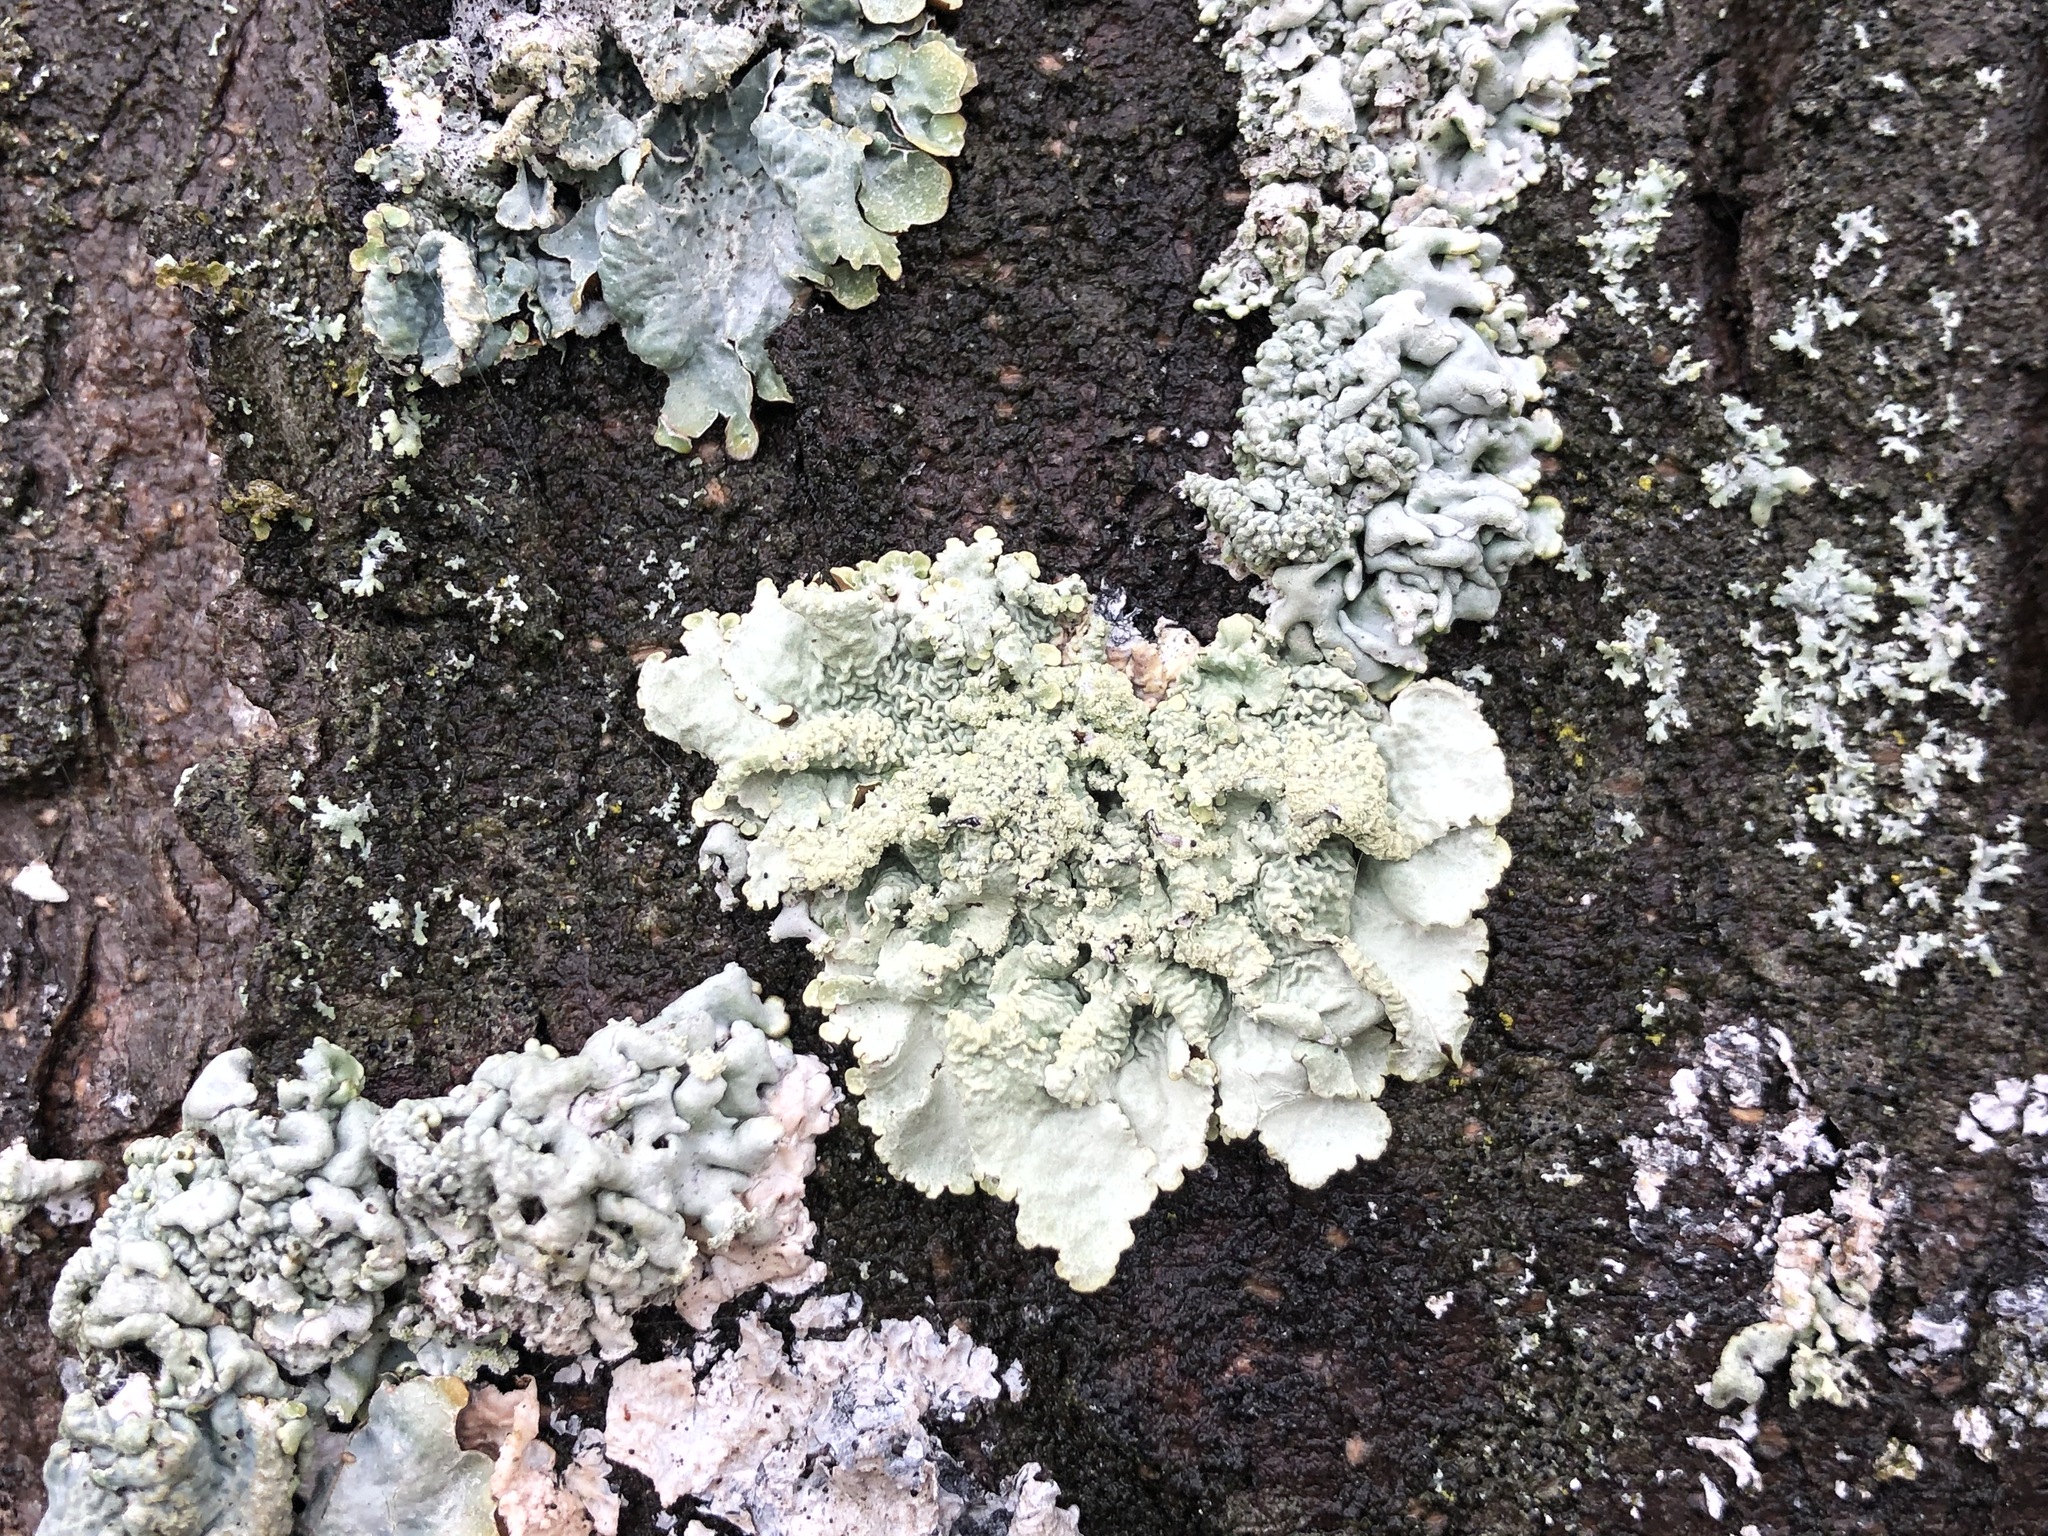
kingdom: Fungi
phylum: Ascomycota
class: Lecanoromycetes
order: Lecanorales
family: Parmeliaceae
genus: Flavoparmelia
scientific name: Flavoparmelia caperata
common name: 40-mile per hour lichen
